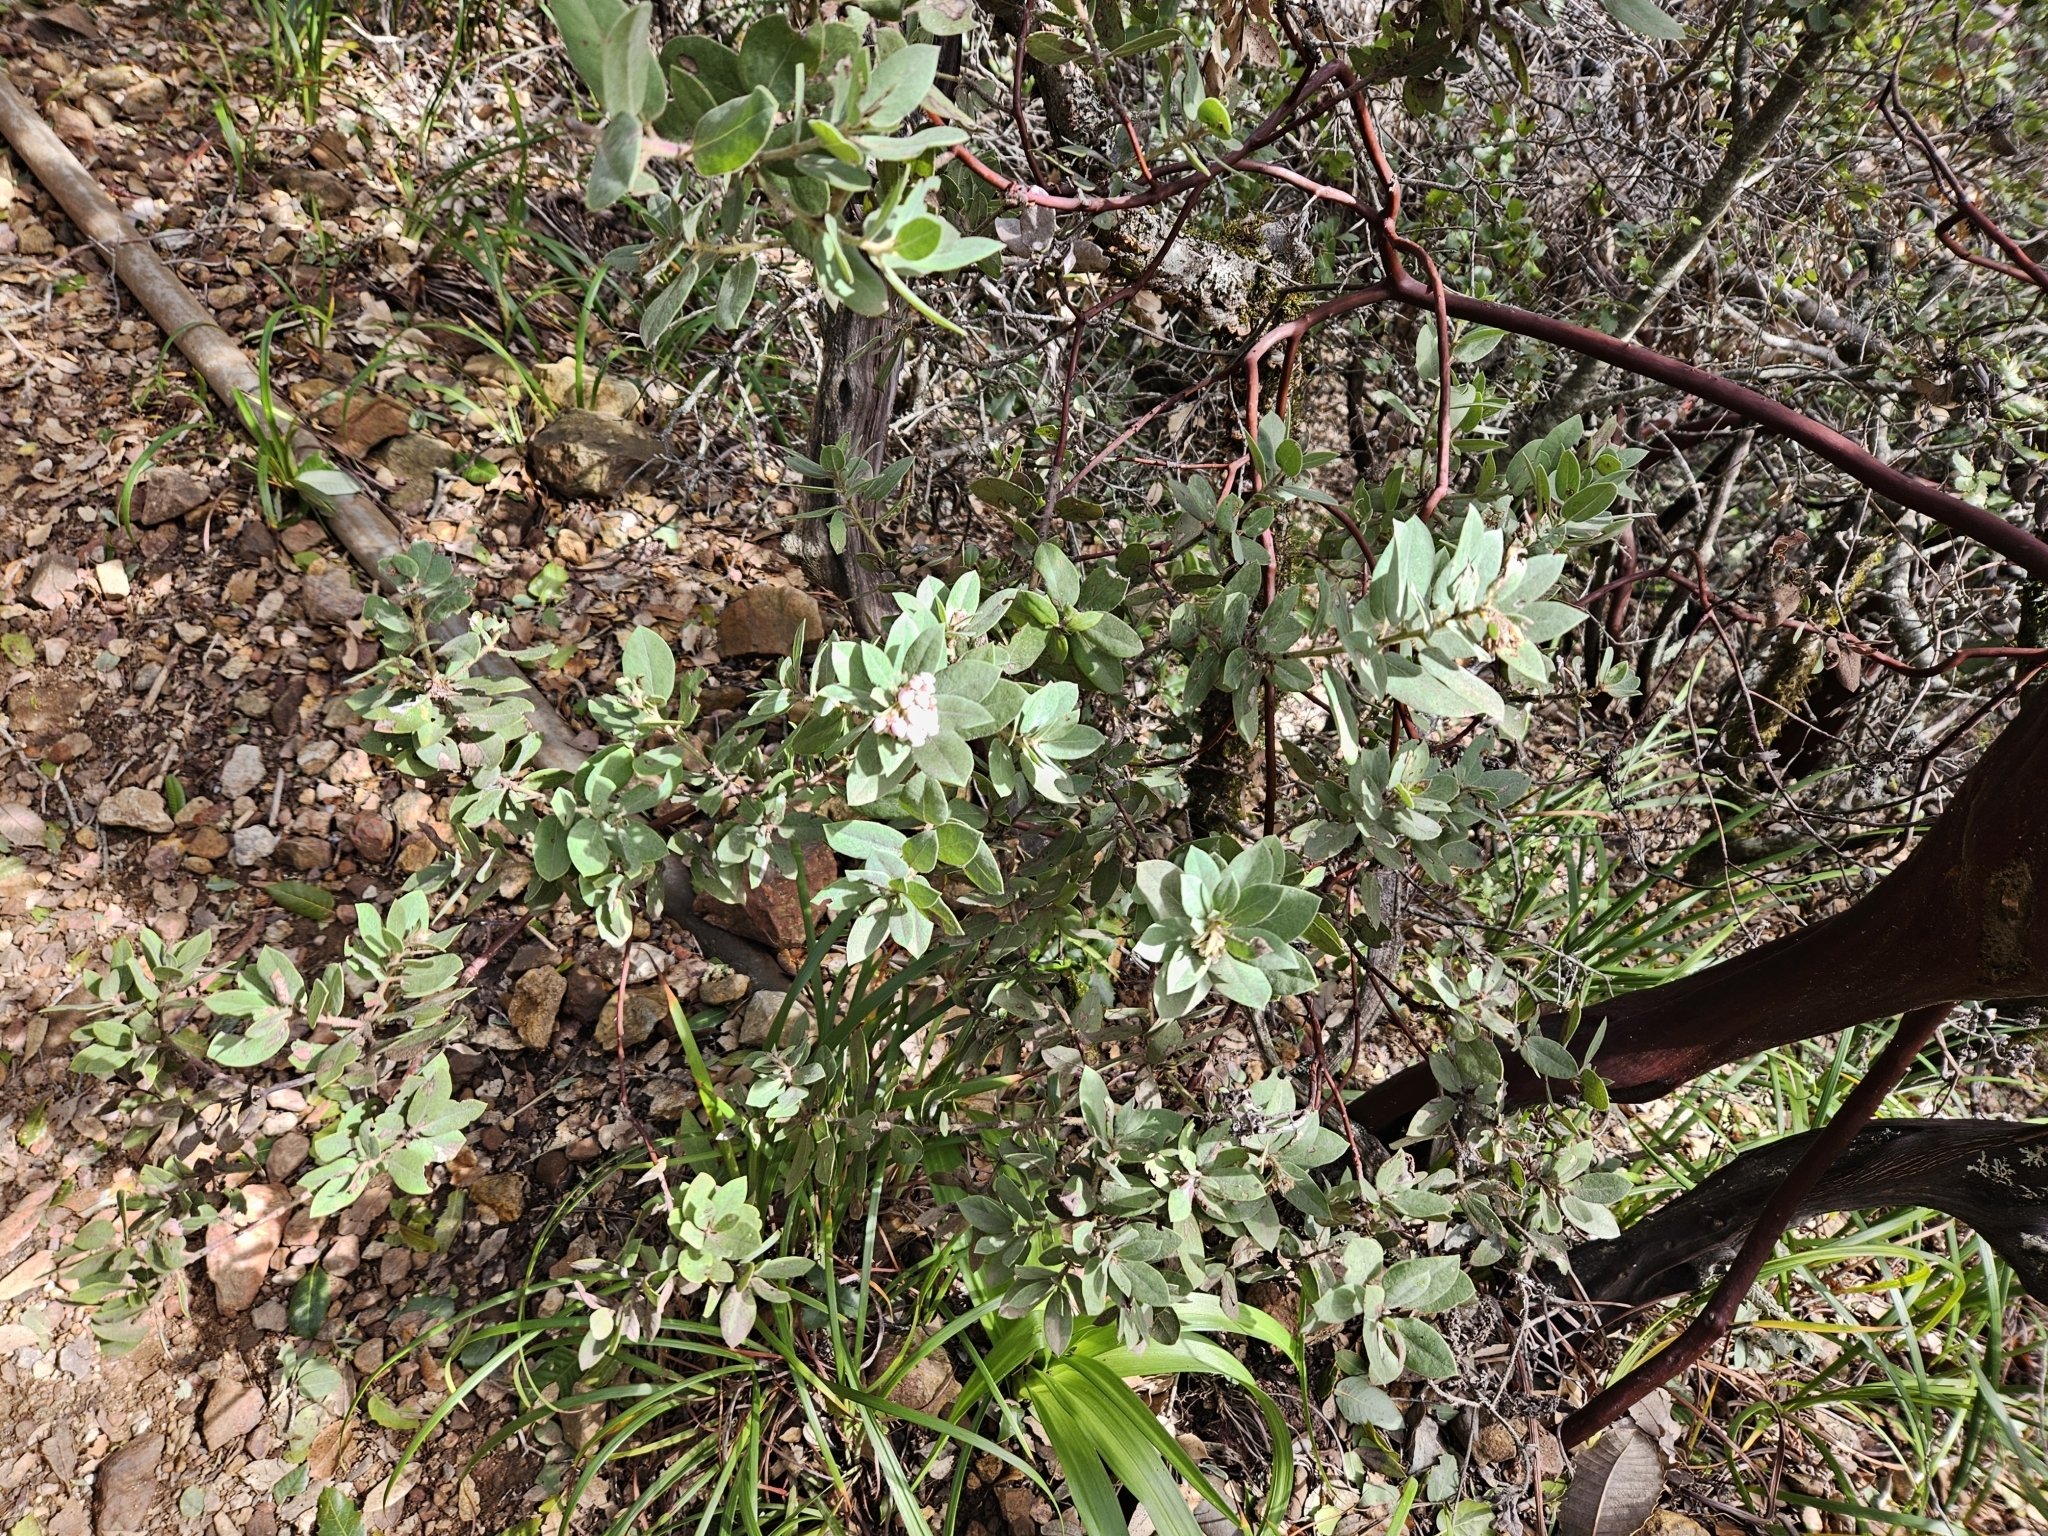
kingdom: Plantae
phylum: Tracheophyta
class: Magnoliopsida
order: Ericales
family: Ericaceae
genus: Arctostaphylos
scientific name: Arctostaphylos glandulosa
